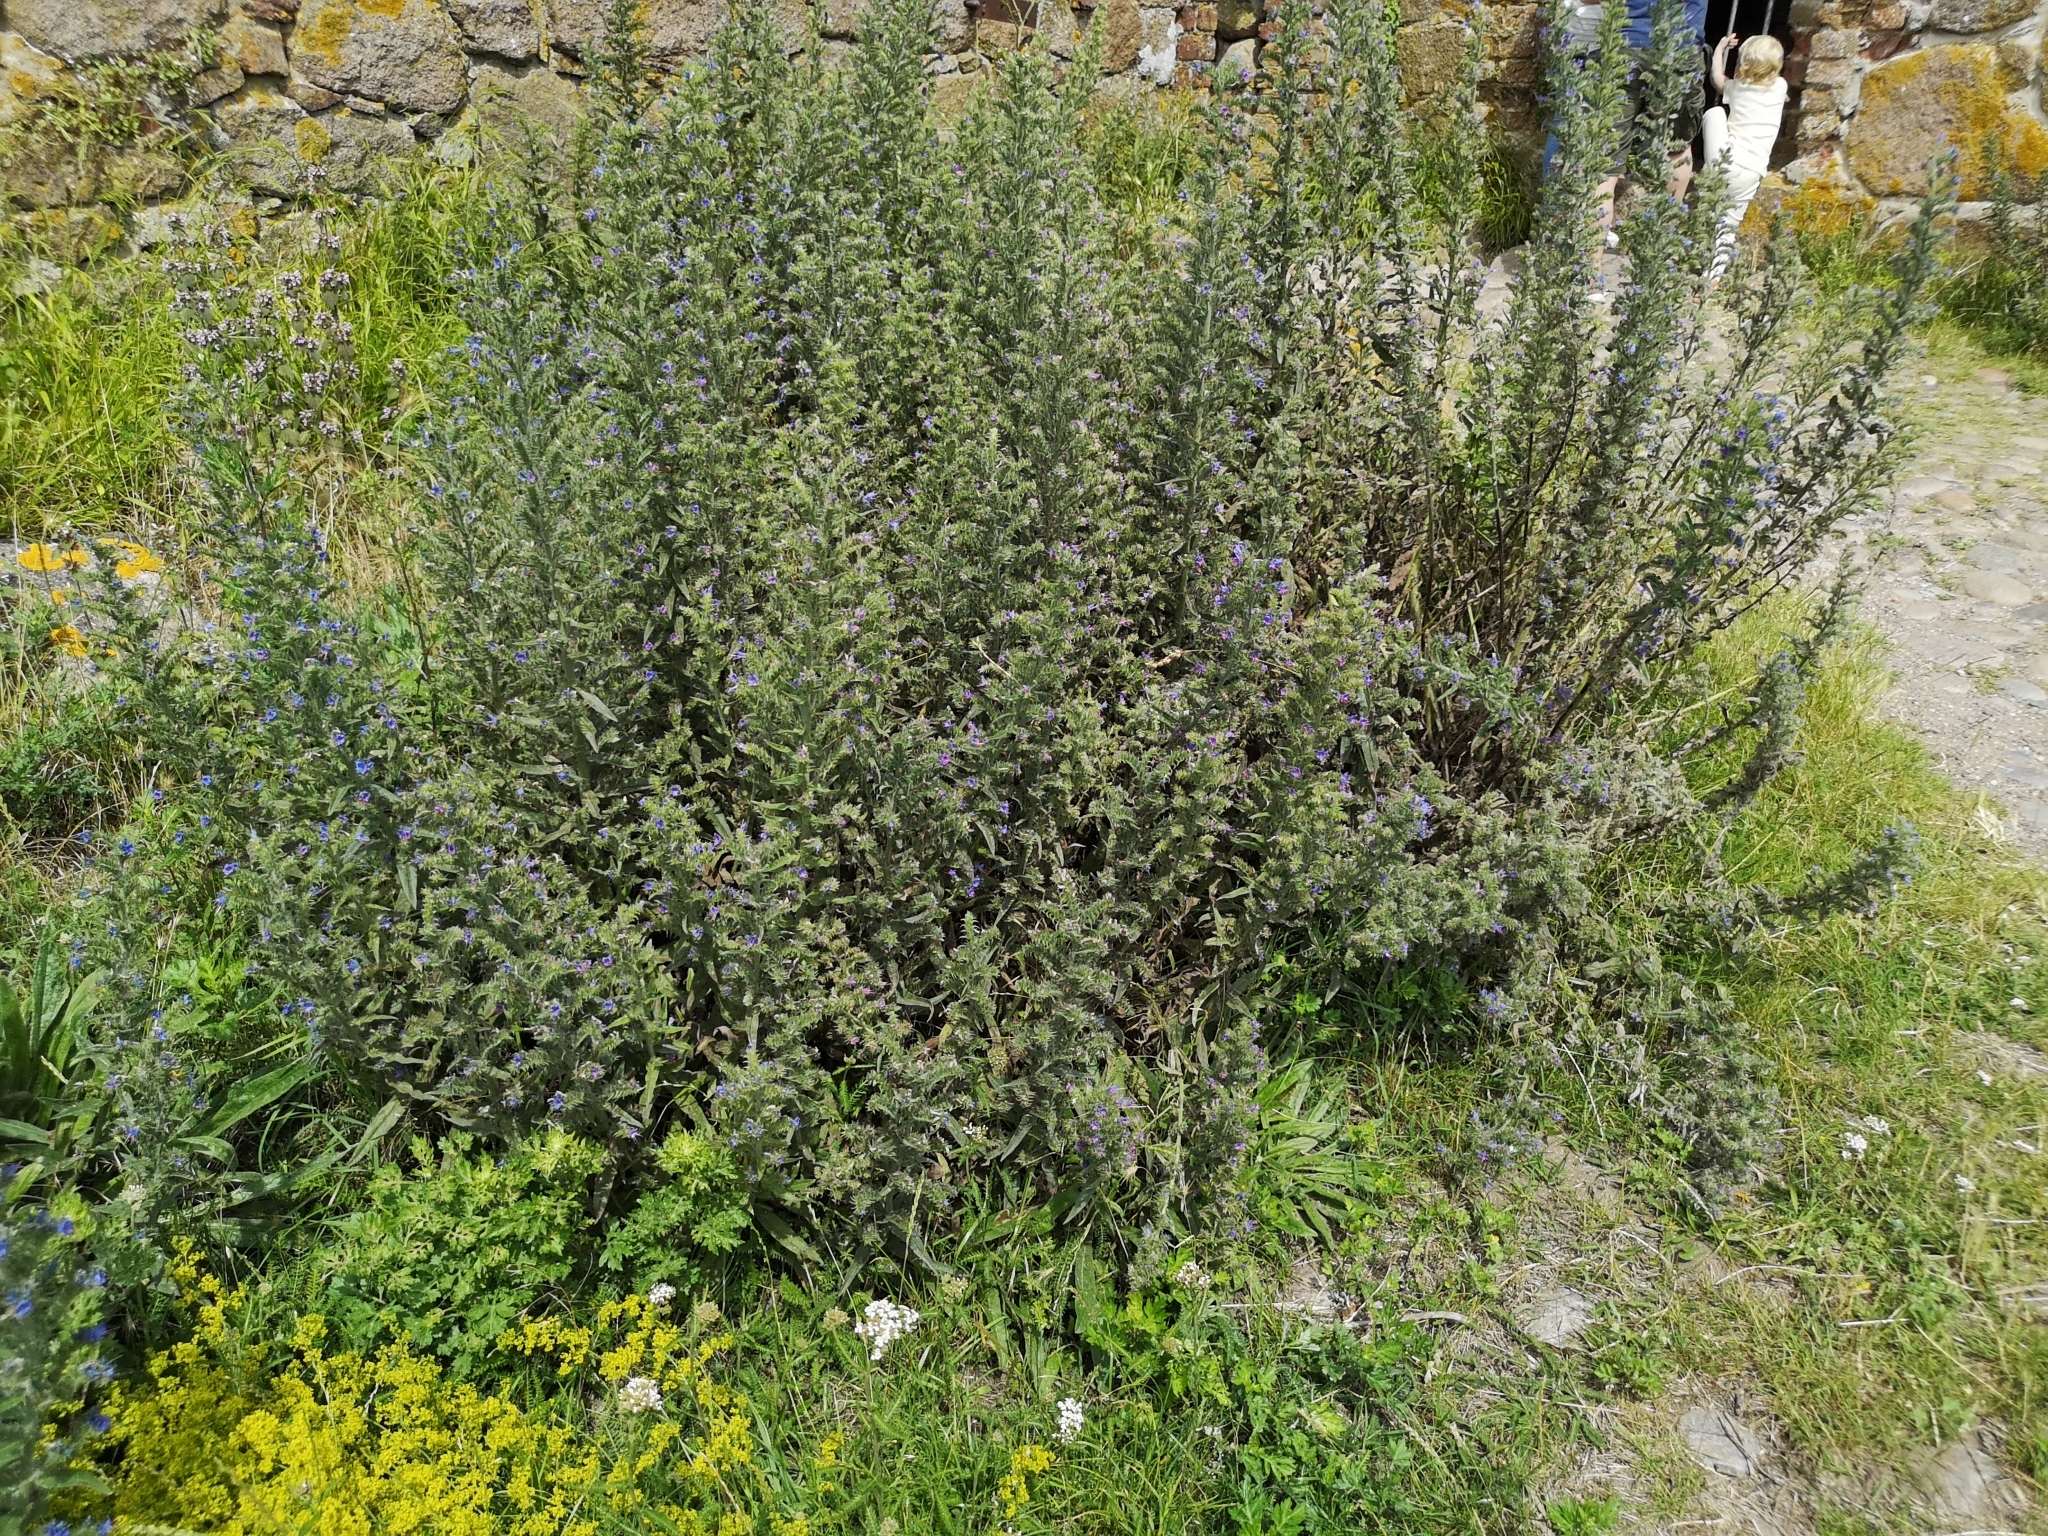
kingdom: Plantae
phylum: Tracheophyta
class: Magnoliopsida
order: Boraginales
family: Boraginaceae
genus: Echium
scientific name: Echium vulgare
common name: Common viper's bugloss
